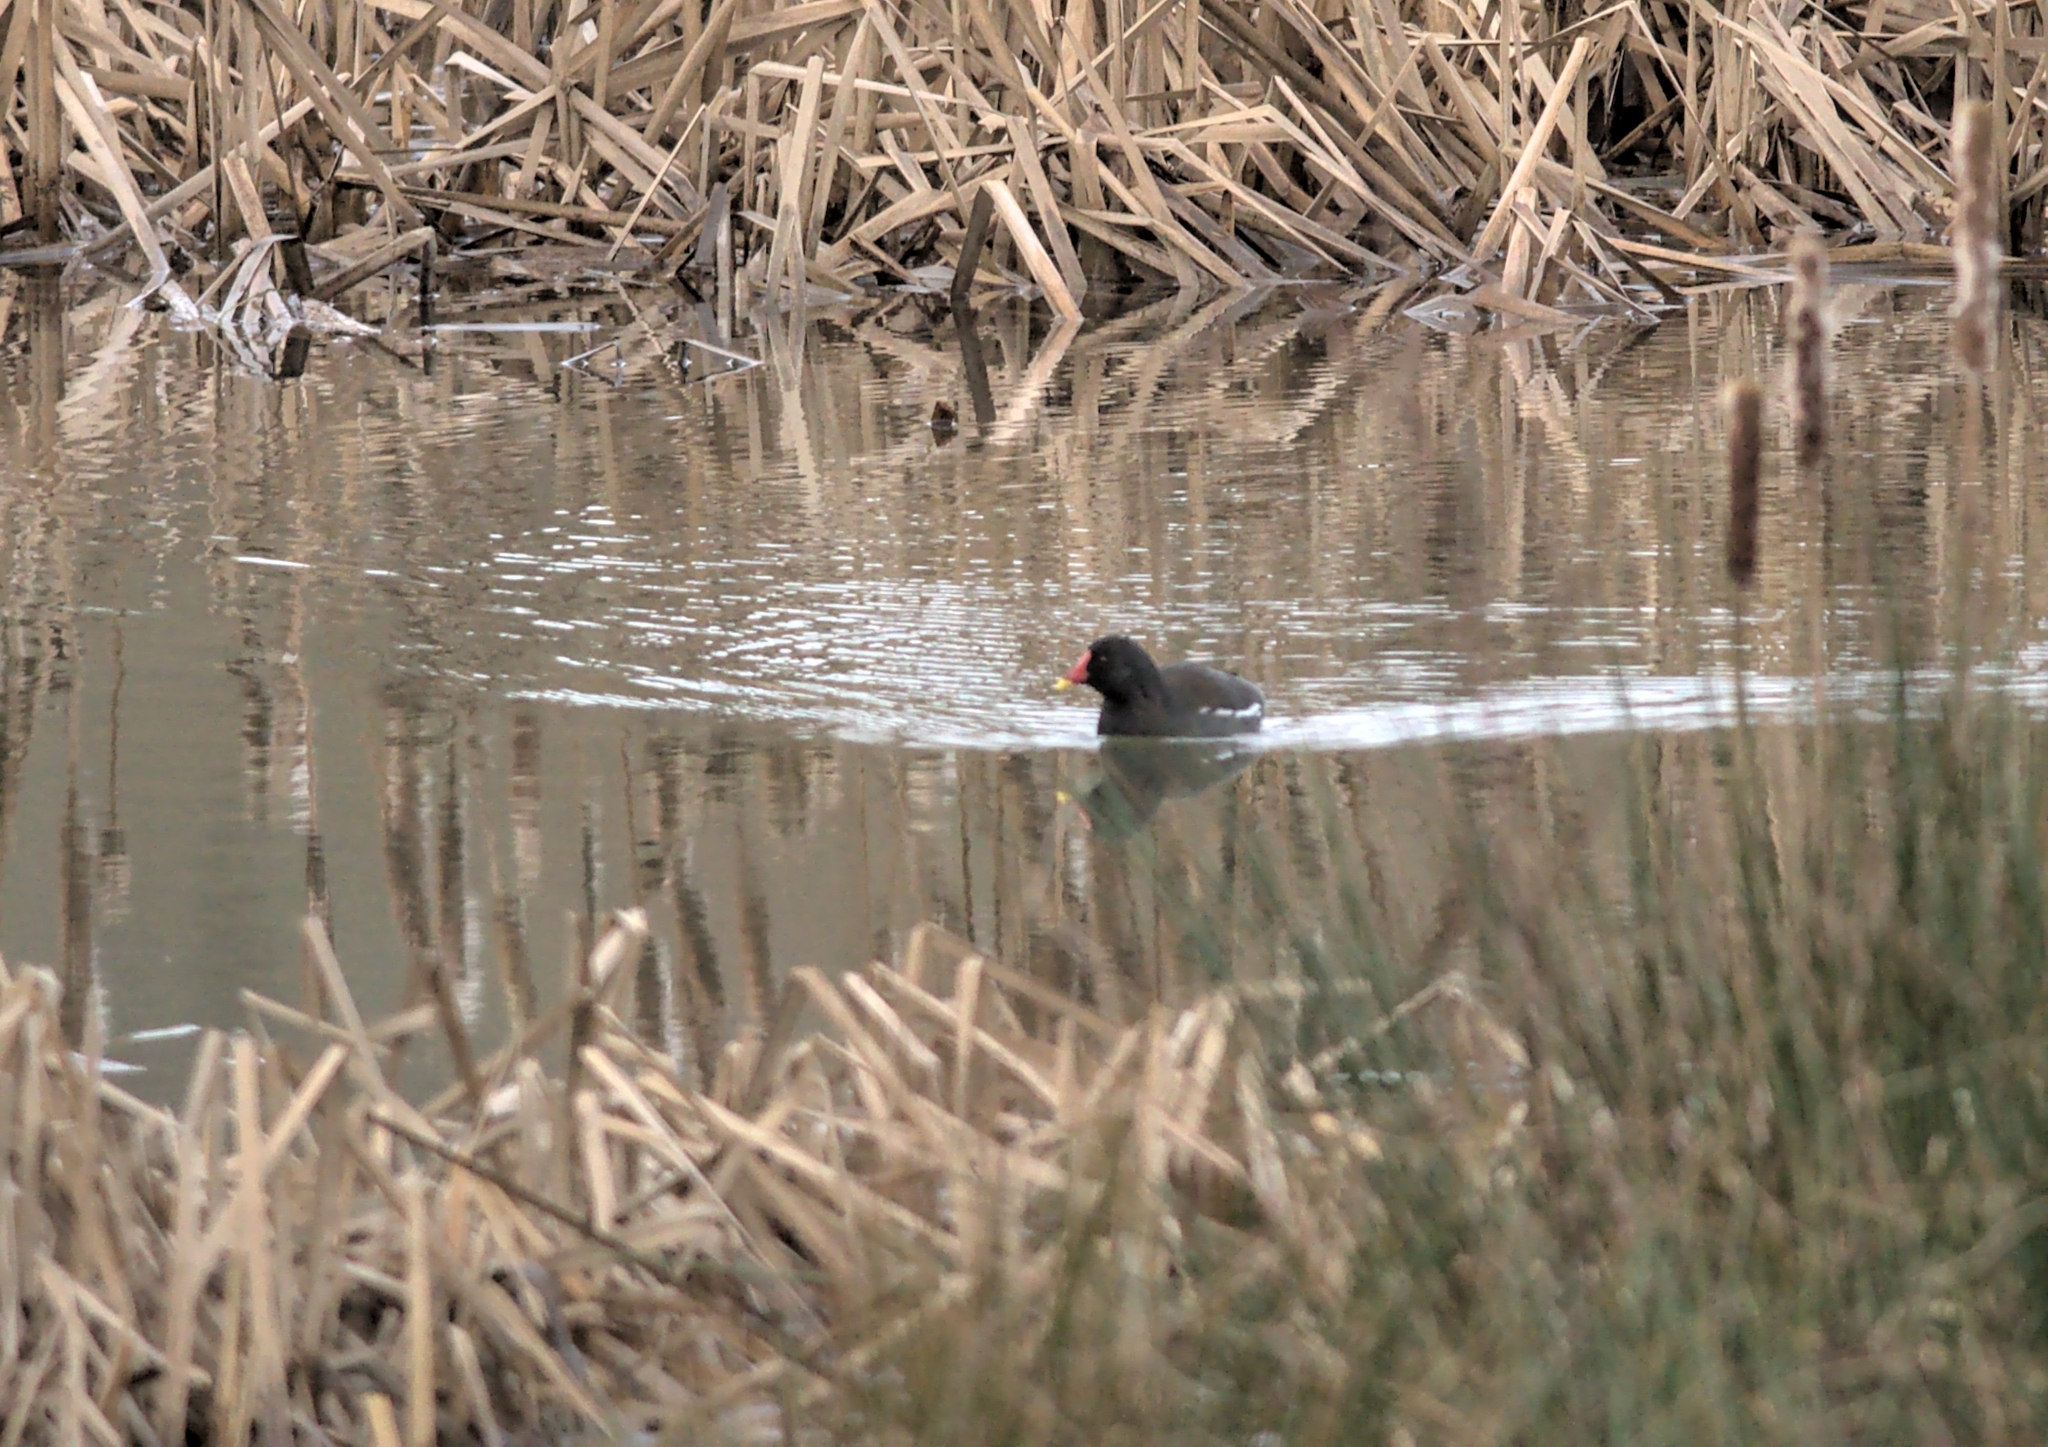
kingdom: Animalia
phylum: Chordata
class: Aves
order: Gruiformes
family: Rallidae
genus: Gallinula
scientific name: Gallinula chloropus
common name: Common moorhen
